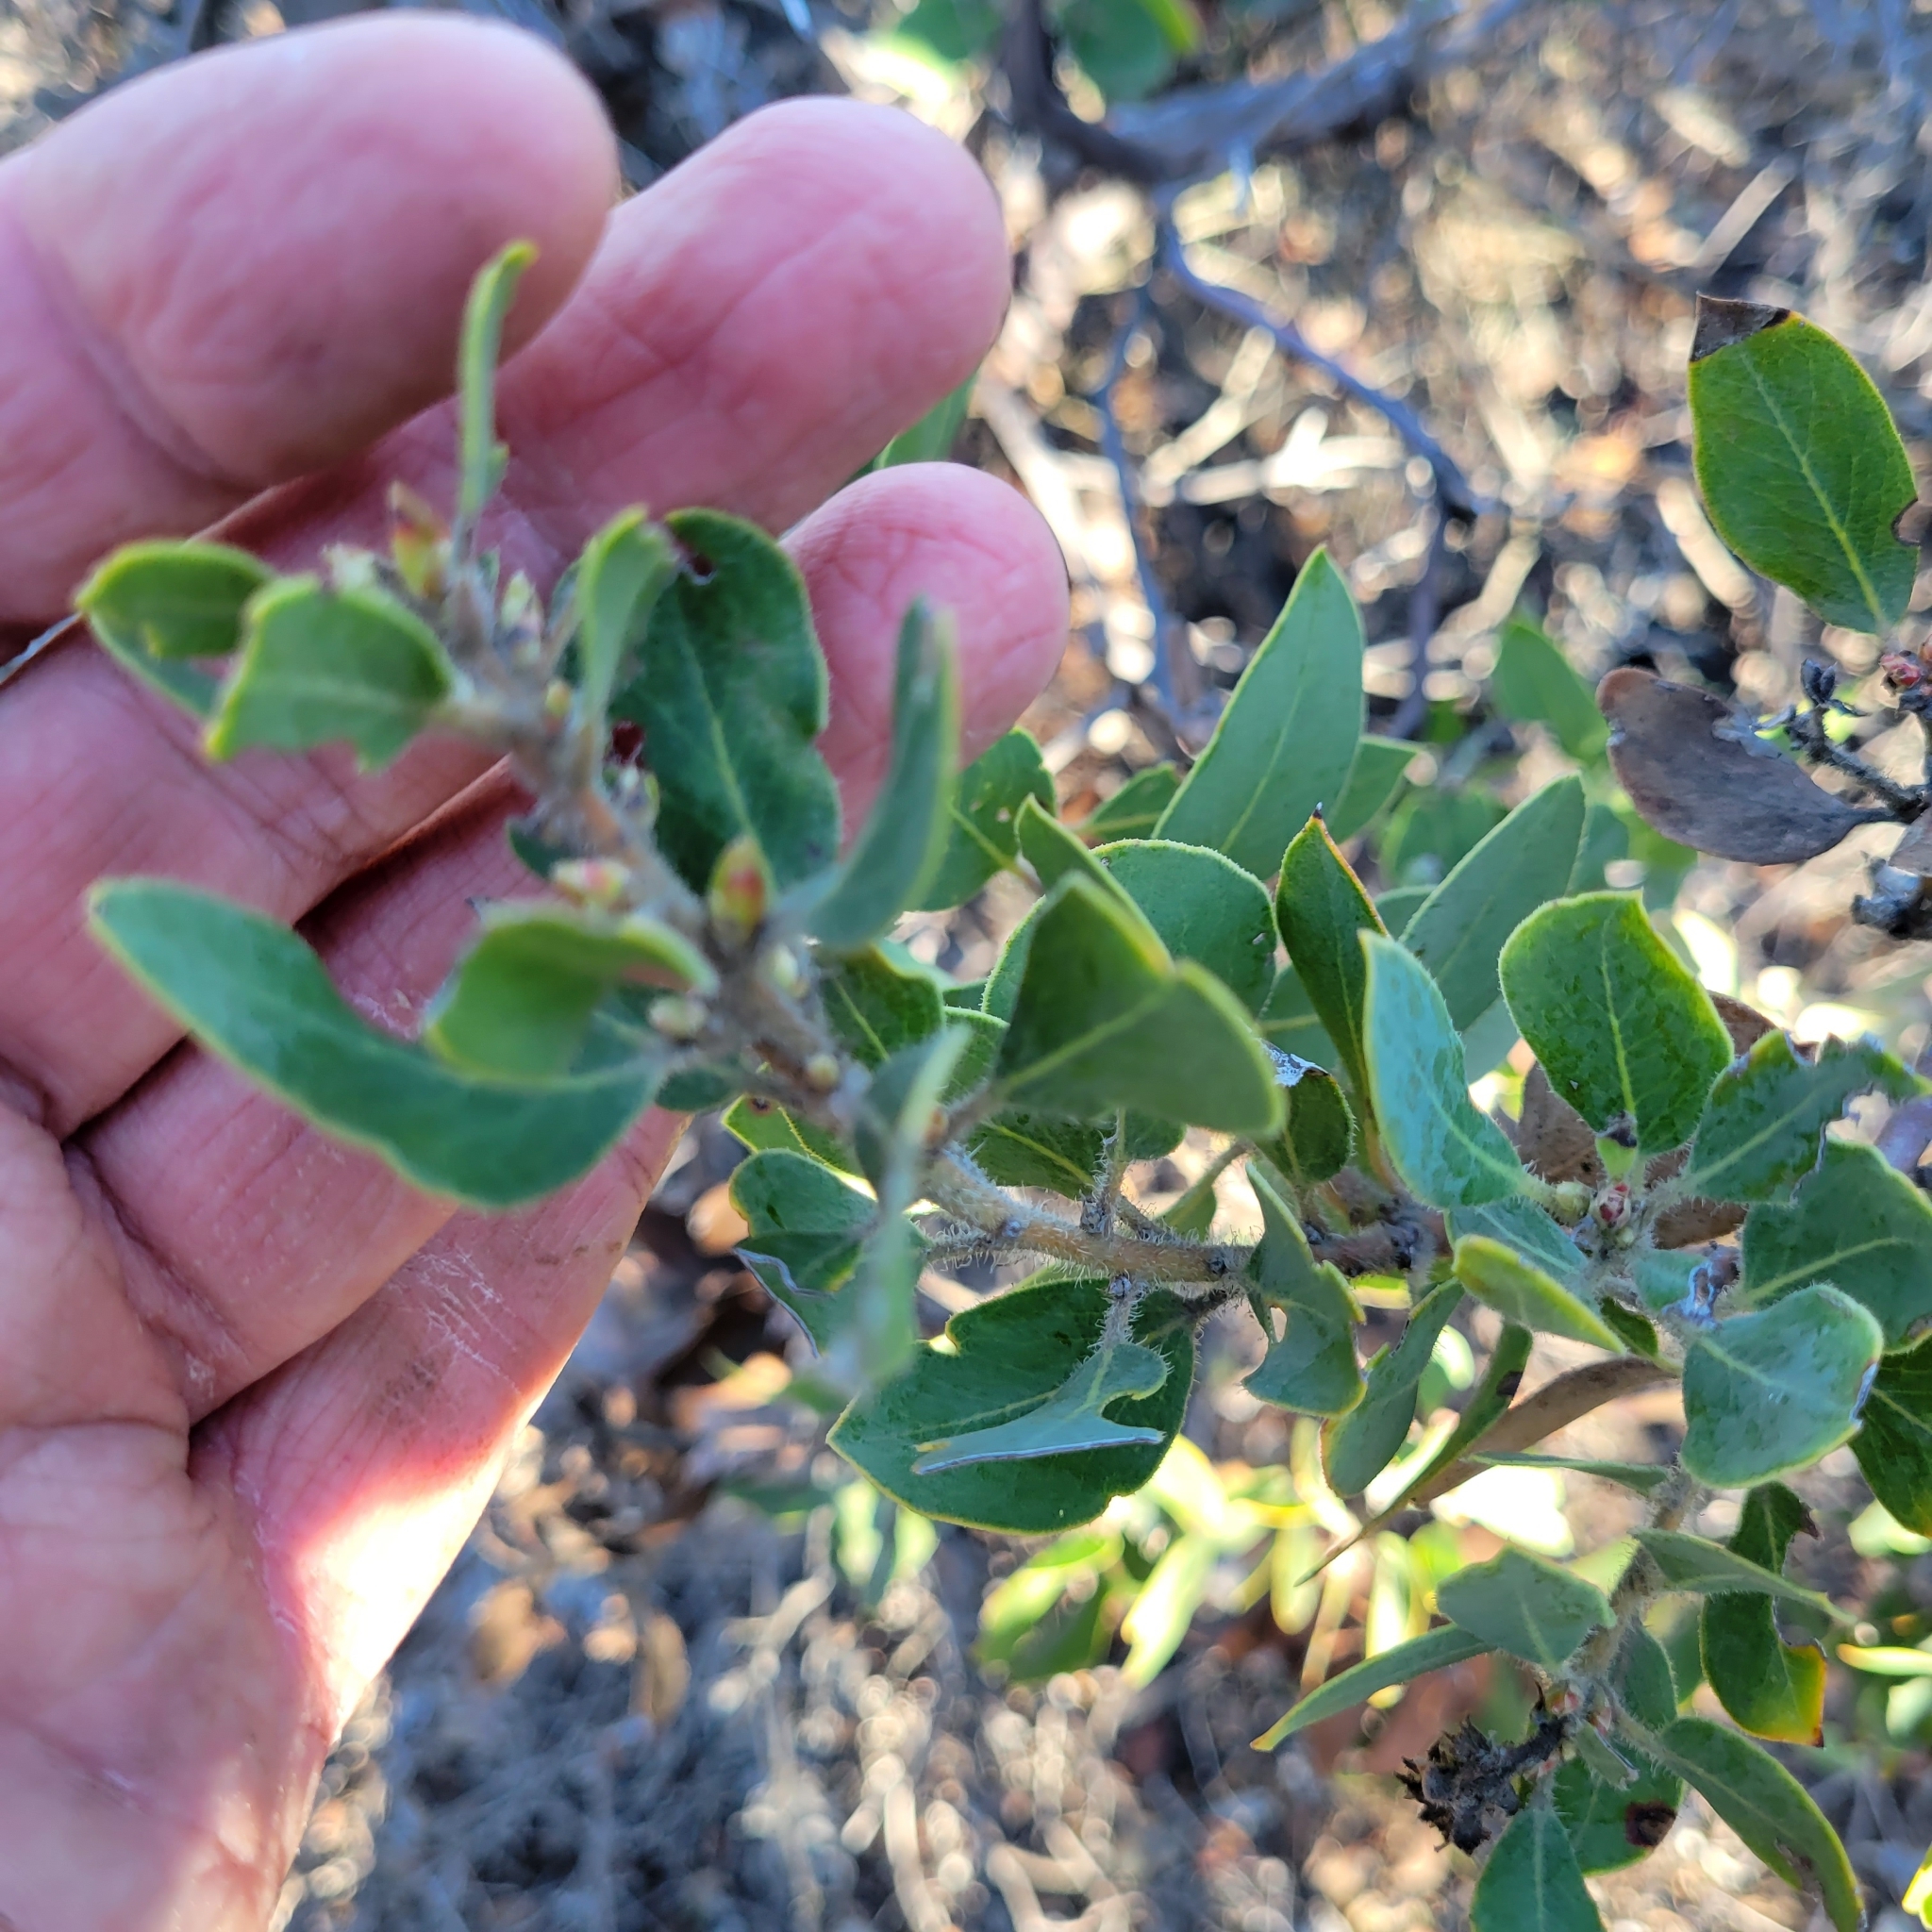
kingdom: Plantae
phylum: Tracheophyta
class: Magnoliopsida
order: Ericales
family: Ericaceae
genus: Arctostaphylos
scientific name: Arctostaphylos glandulosa
